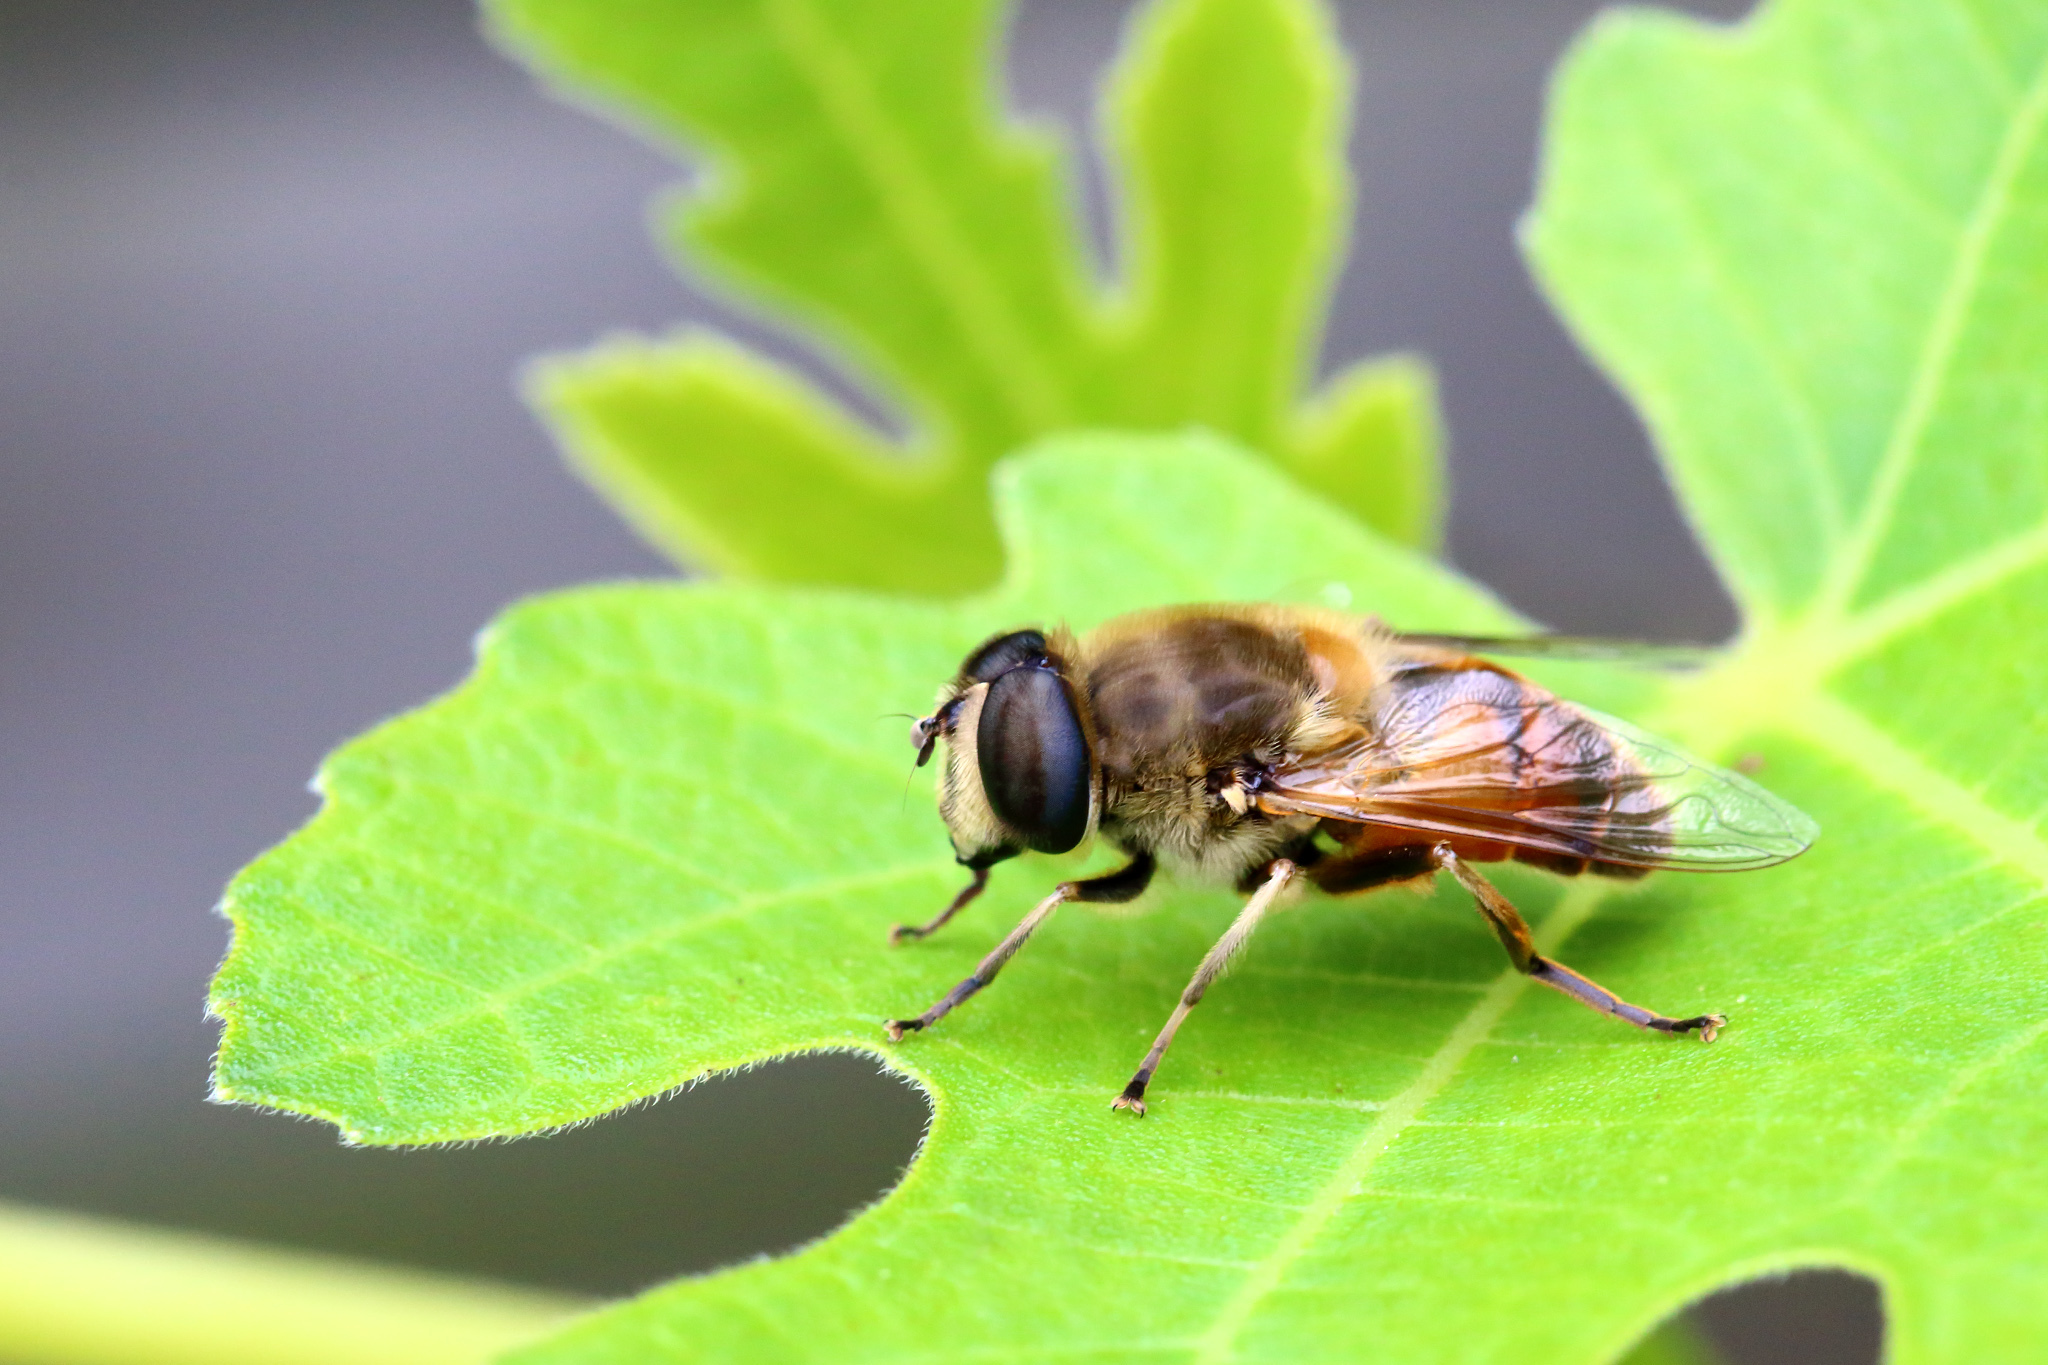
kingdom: Animalia
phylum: Arthropoda
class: Insecta
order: Diptera
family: Syrphidae
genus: Eristalis
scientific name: Eristalis tenax
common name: Drone fly
